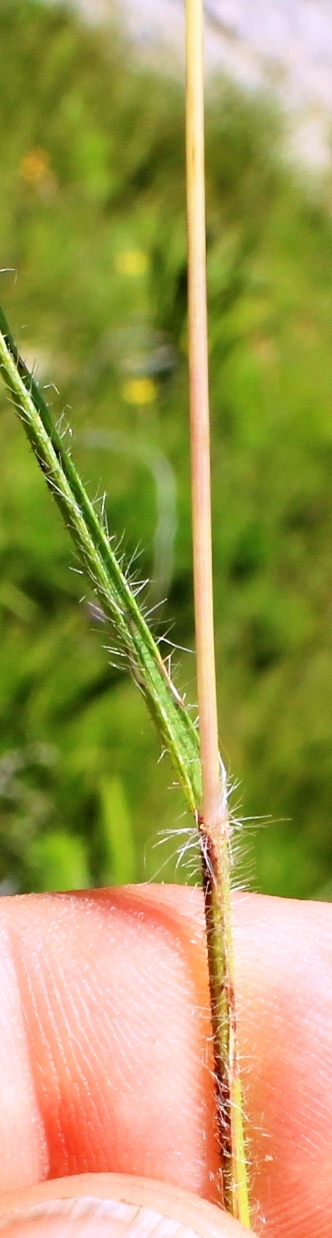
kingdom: Plantae
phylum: Tracheophyta
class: Liliopsida
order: Poales
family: Poaceae
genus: Tribolium
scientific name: Tribolium brachystachyum
